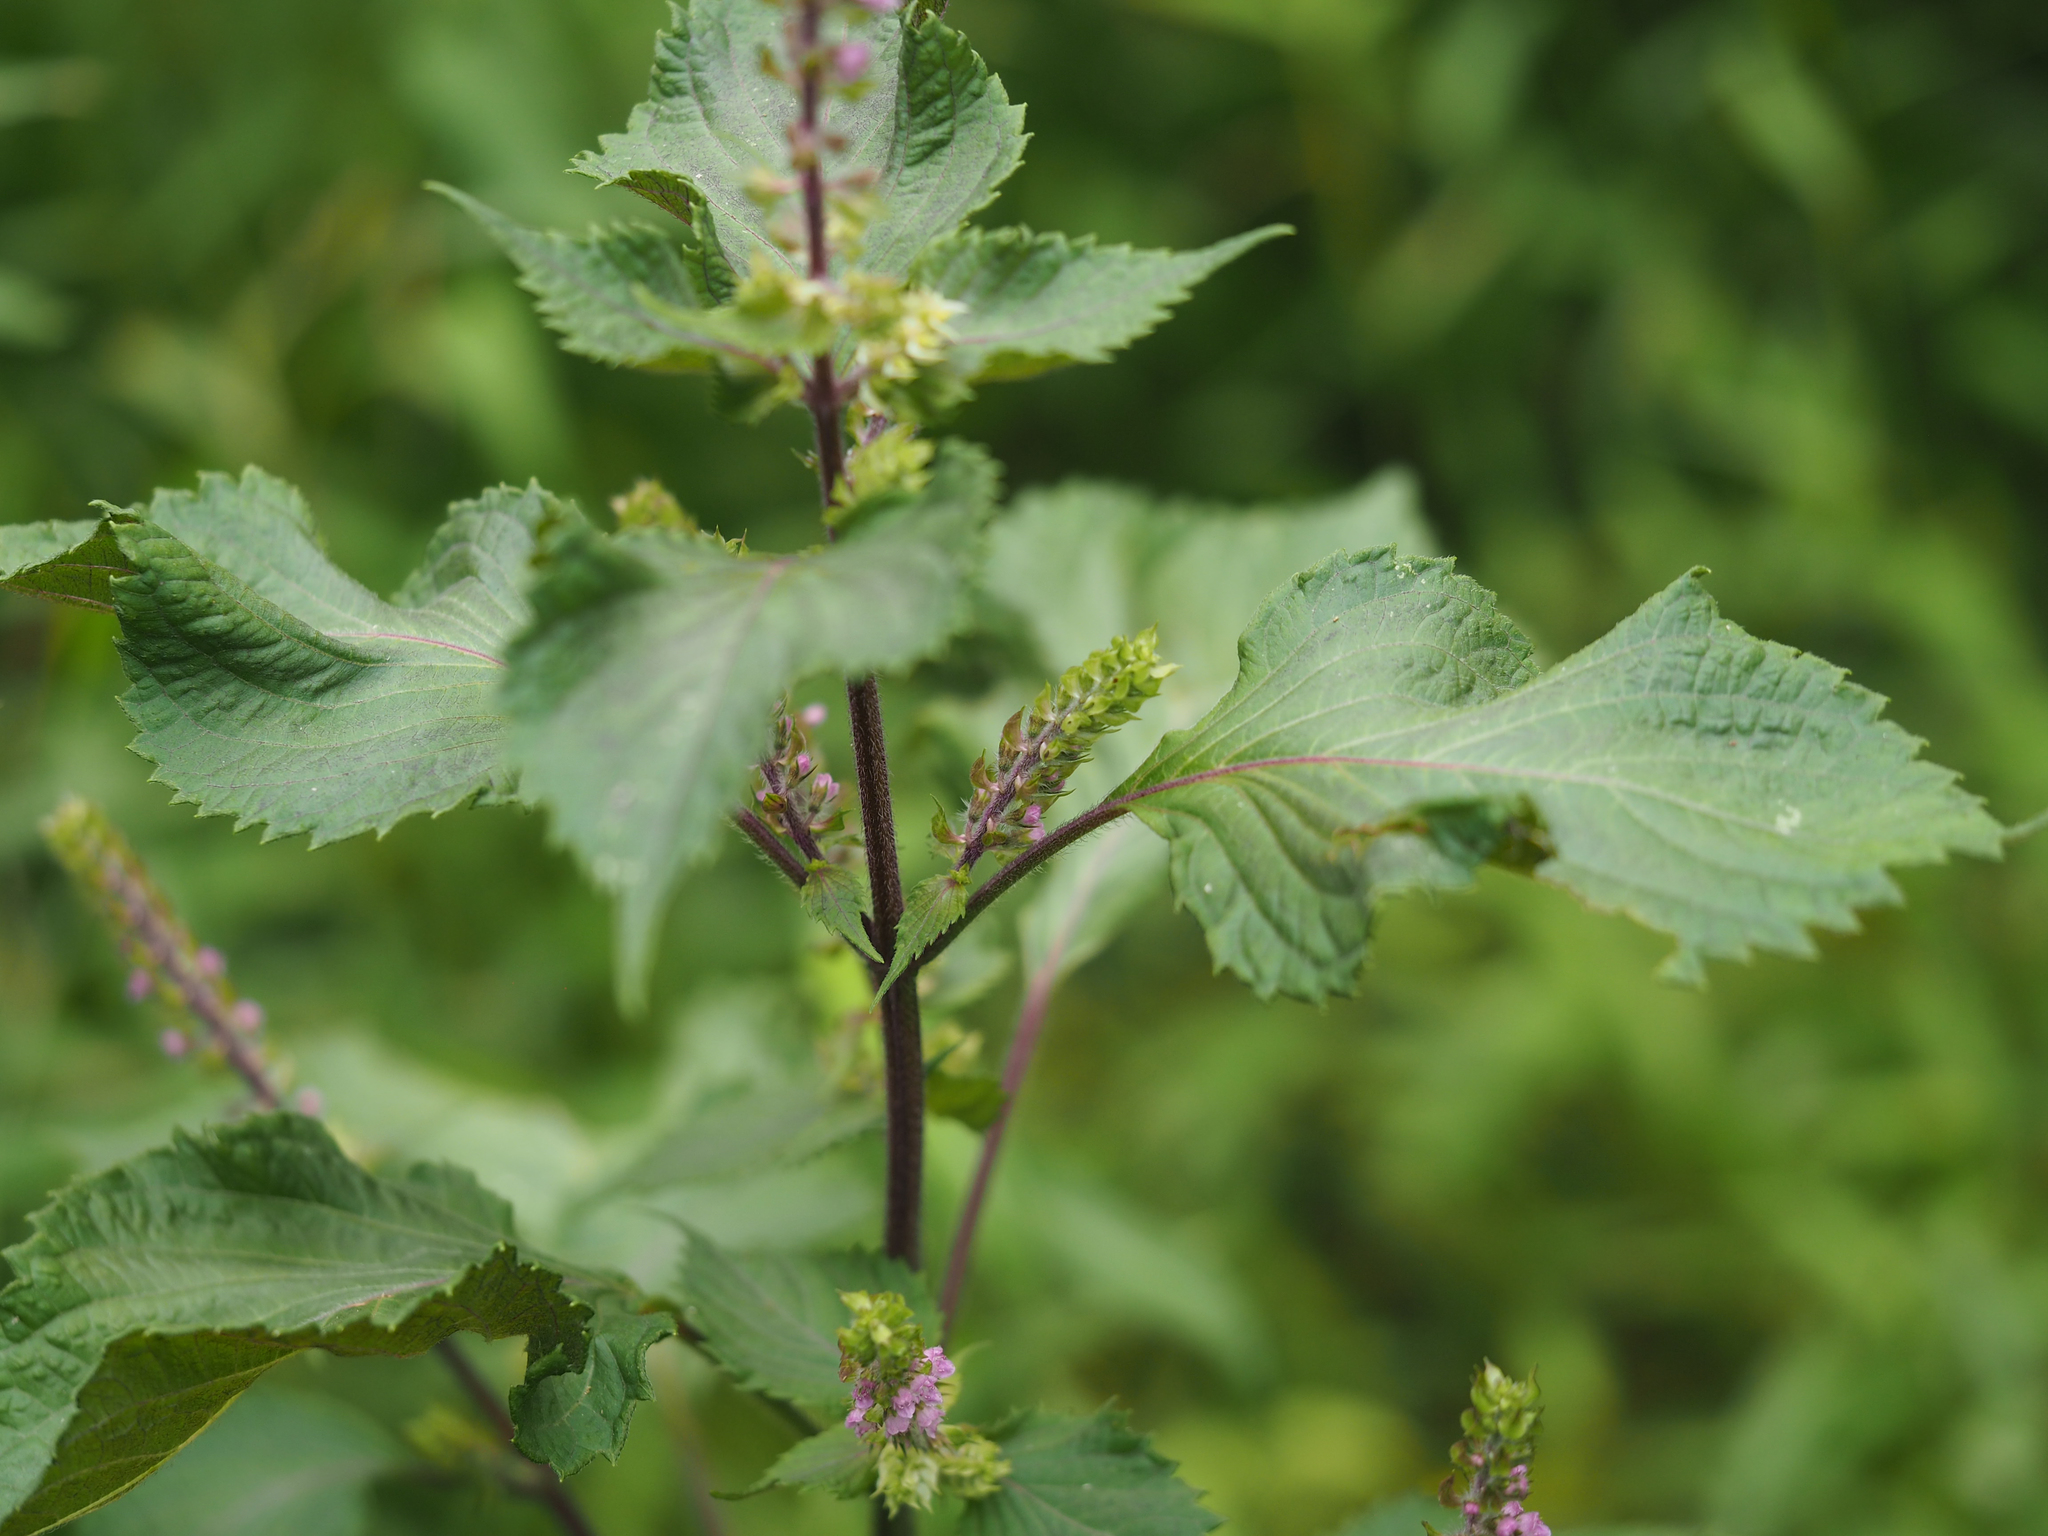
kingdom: Plantae
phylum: Tracheophyta
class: Magnoliopsida
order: Lamiales
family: Lamiaceae
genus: Perilla
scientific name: Perilla frutescens
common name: Perilla
